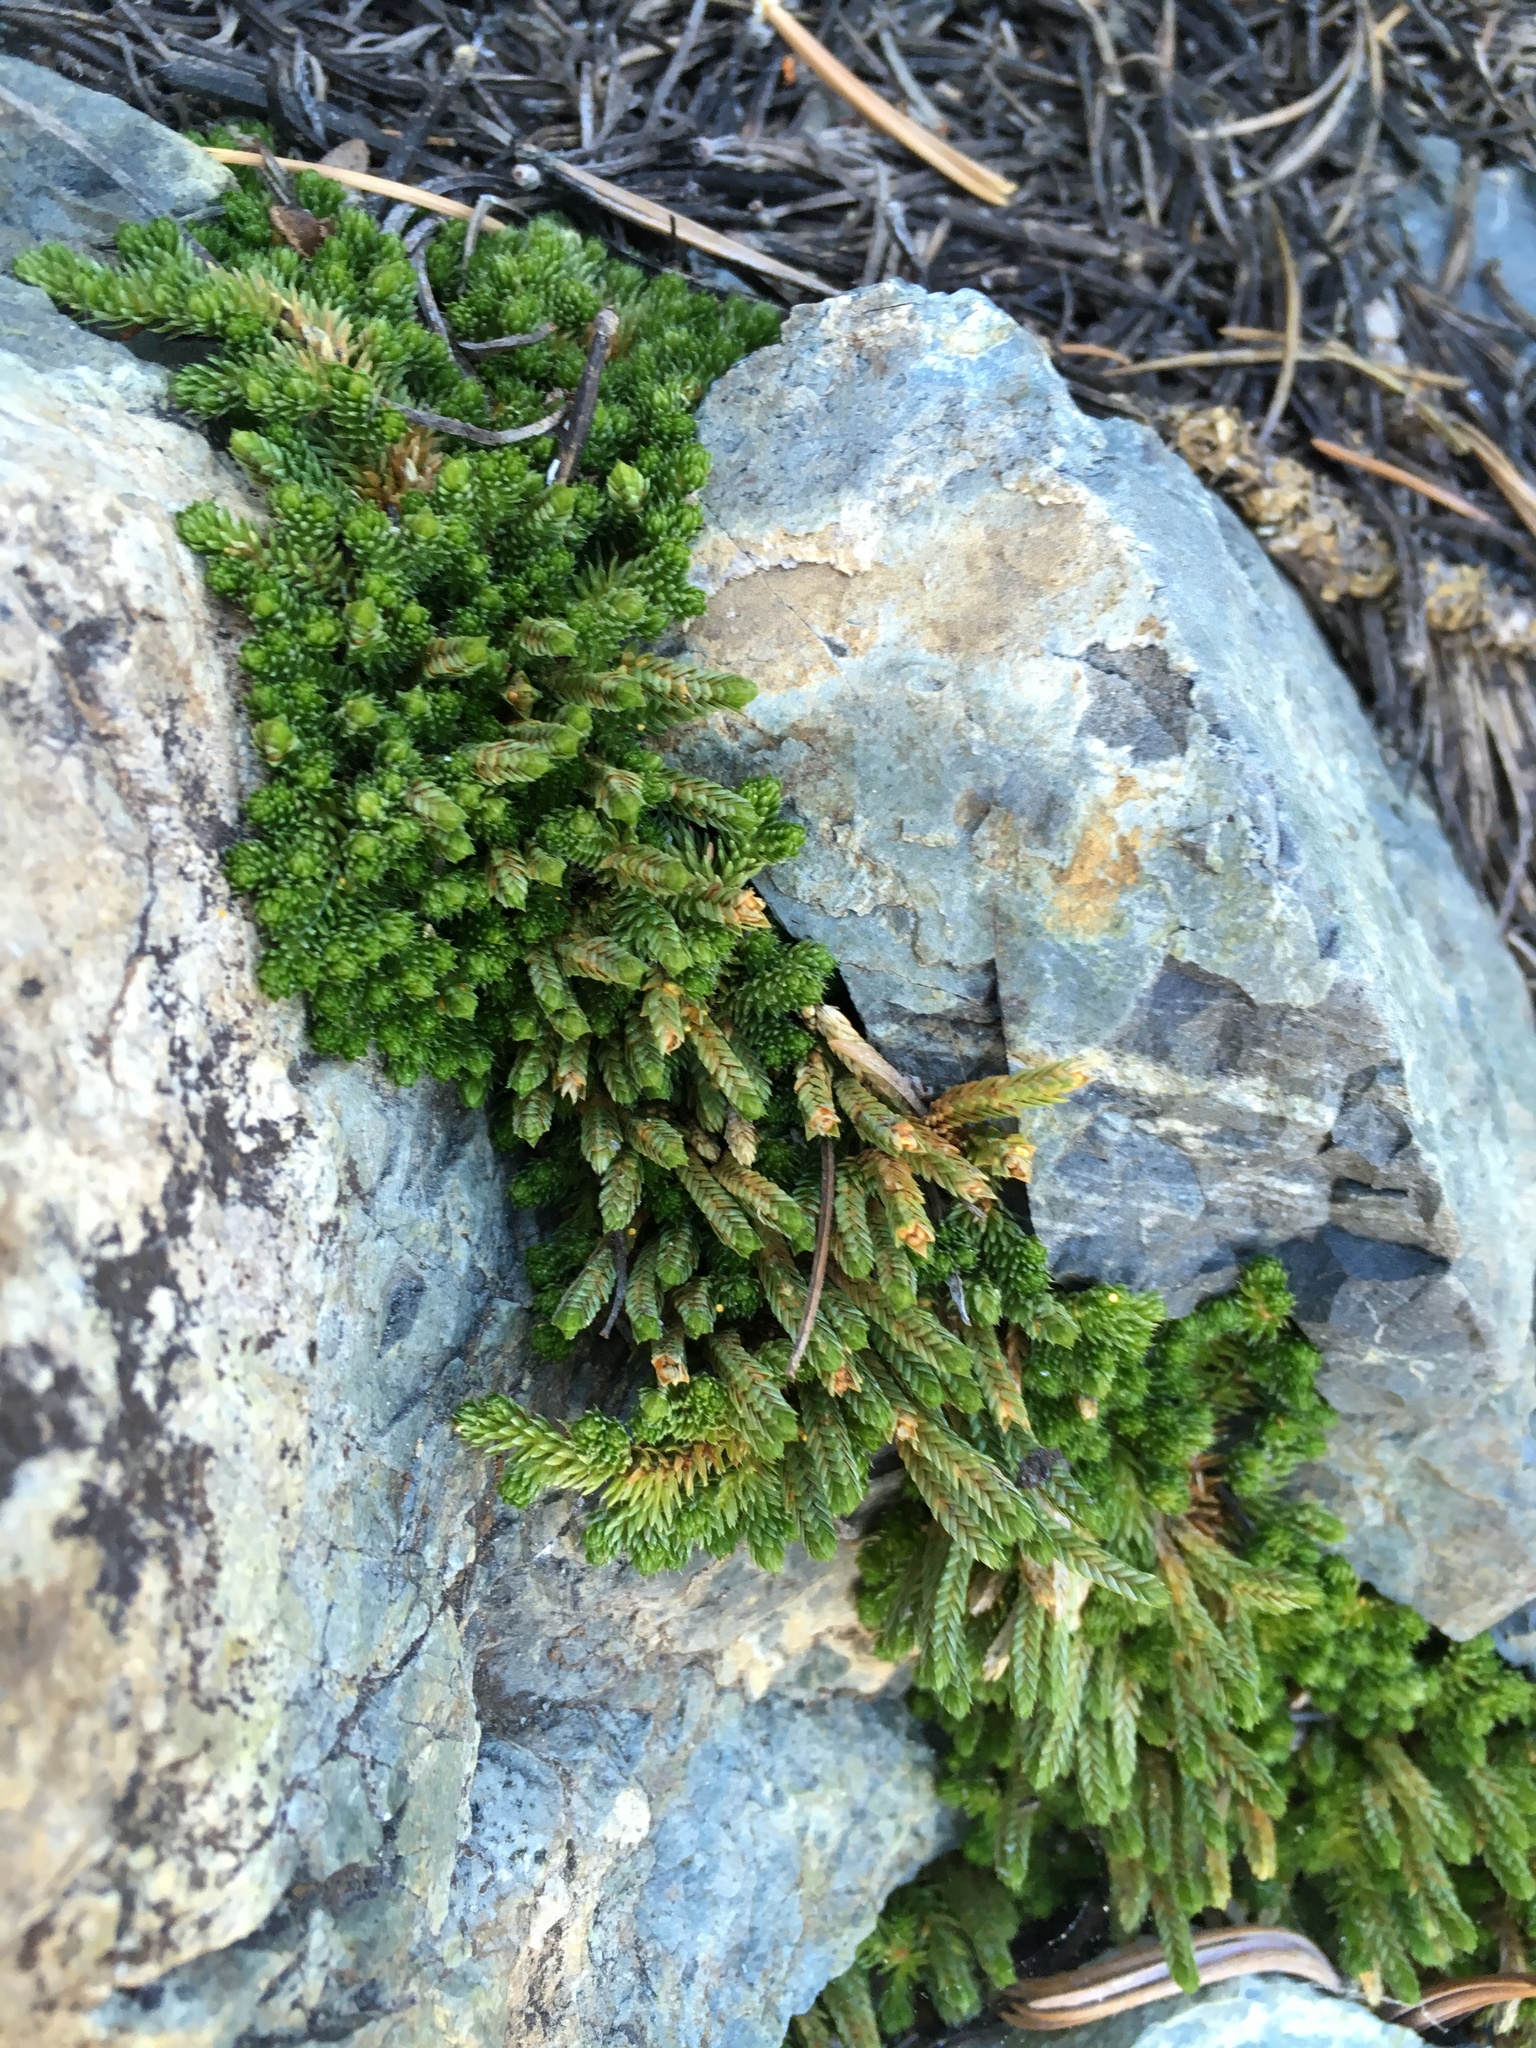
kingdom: Plantae
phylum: Tracheophyta
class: Lycopodiopsida
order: Selaginellales
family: Selaginellaceae
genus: Selaginella
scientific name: Selaginella watsonii
